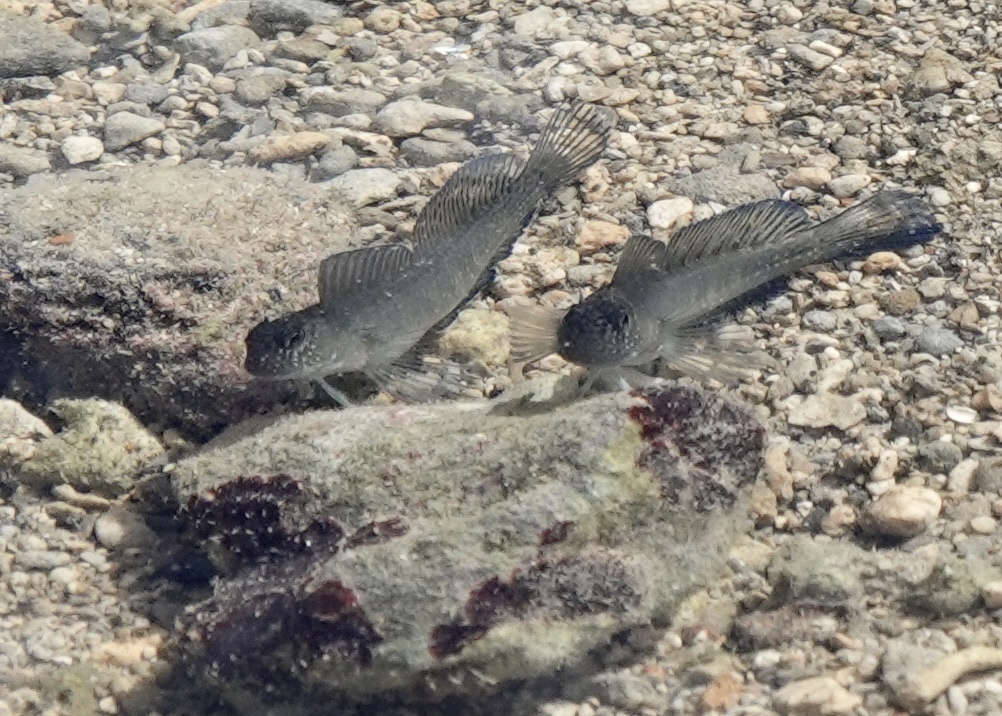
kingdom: Animalia
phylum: Chordata
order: Perciformes
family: Blenniidae
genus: Istiblennius
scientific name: Istiblennius zebra
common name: Zebra blenny
